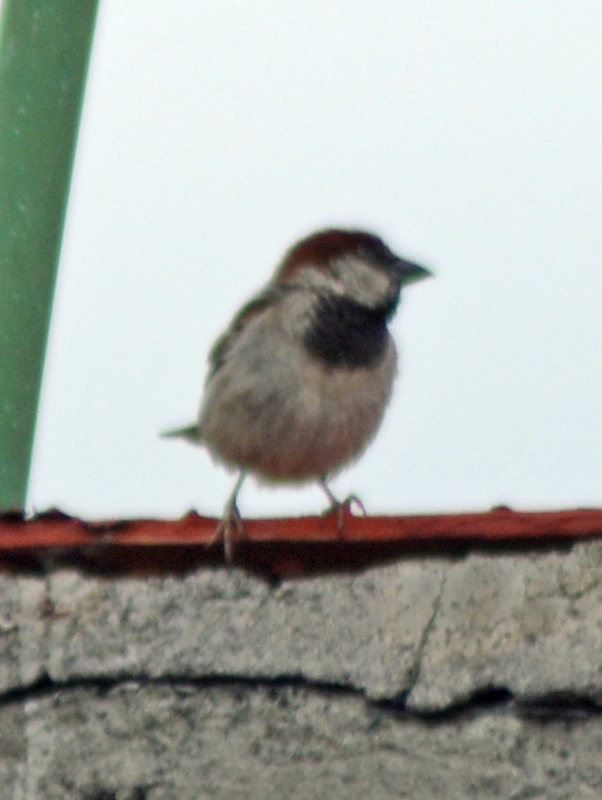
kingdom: Animalia
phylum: Chordata
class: Aves
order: Passeriformes
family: Passeridae
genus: Passer
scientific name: Passer domesticus
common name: House sparrow
